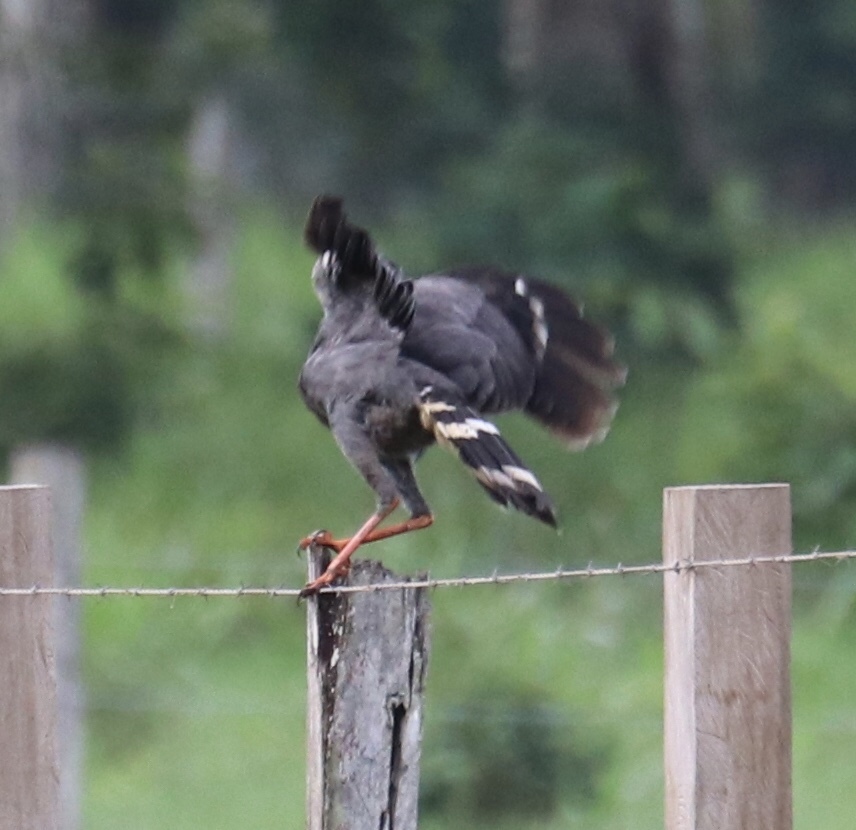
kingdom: Animalia
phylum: Chordata
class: Aves
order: Accipitriformes
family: Accipitridae
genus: Geranospiza
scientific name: Geranospiza caerulescens
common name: Crane hawk
